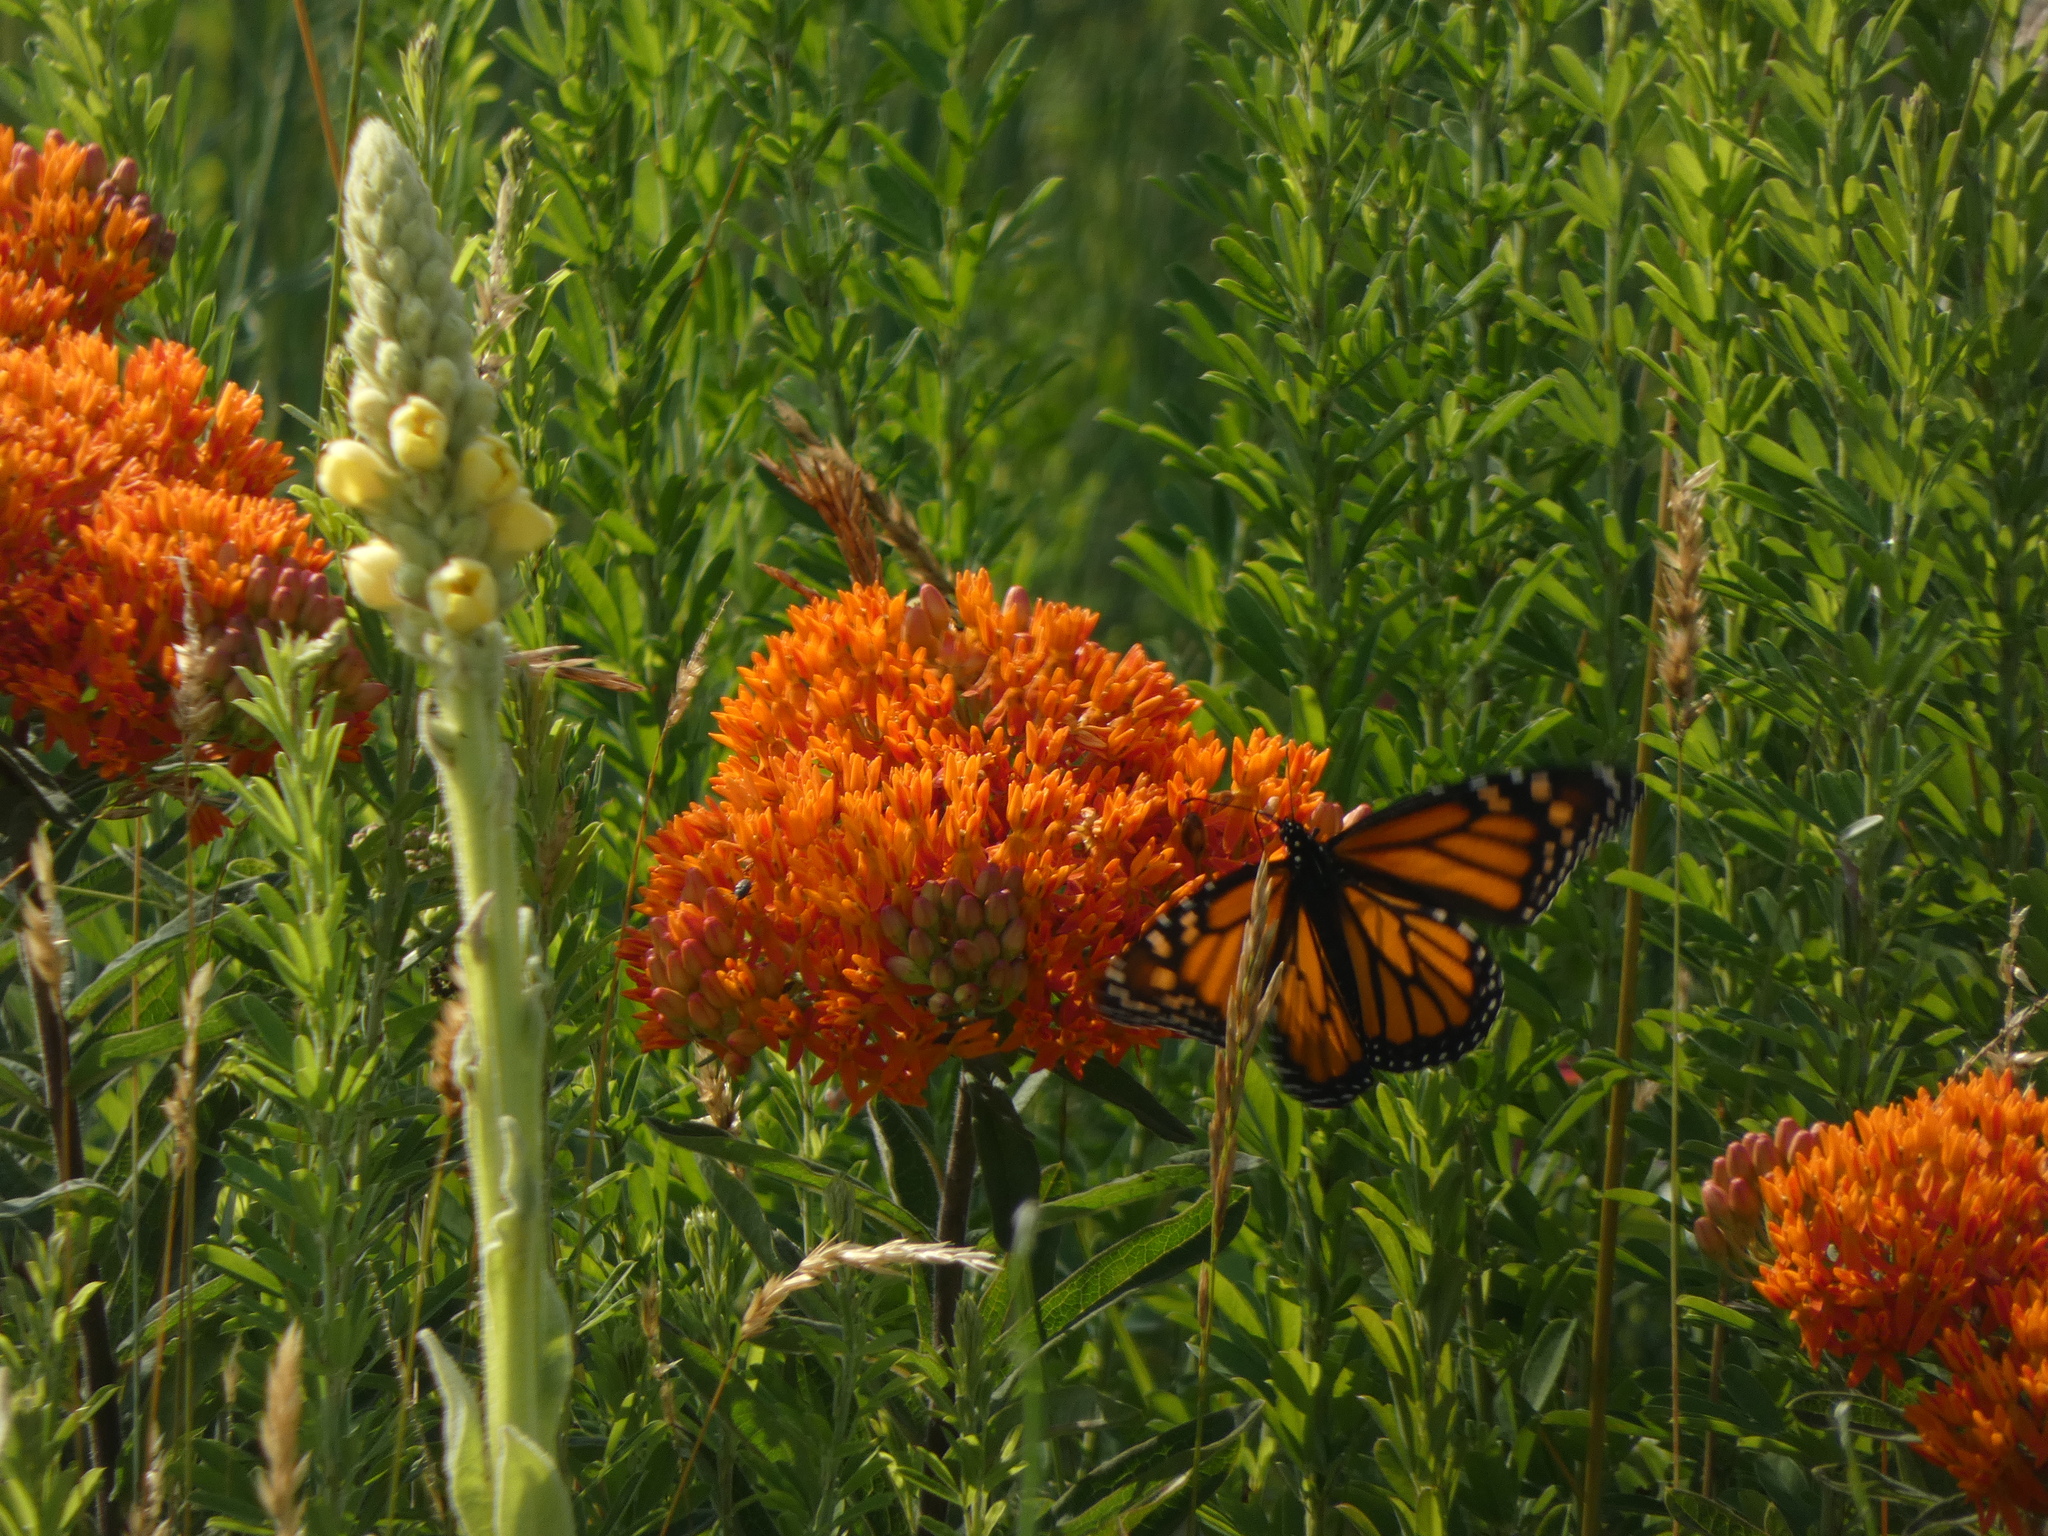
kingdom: Animalia
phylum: Arthropoda
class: Insecta
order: Lepidoptera
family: Nymphalidae
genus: Danaus
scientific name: Danaus plexippus
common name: Monarch
